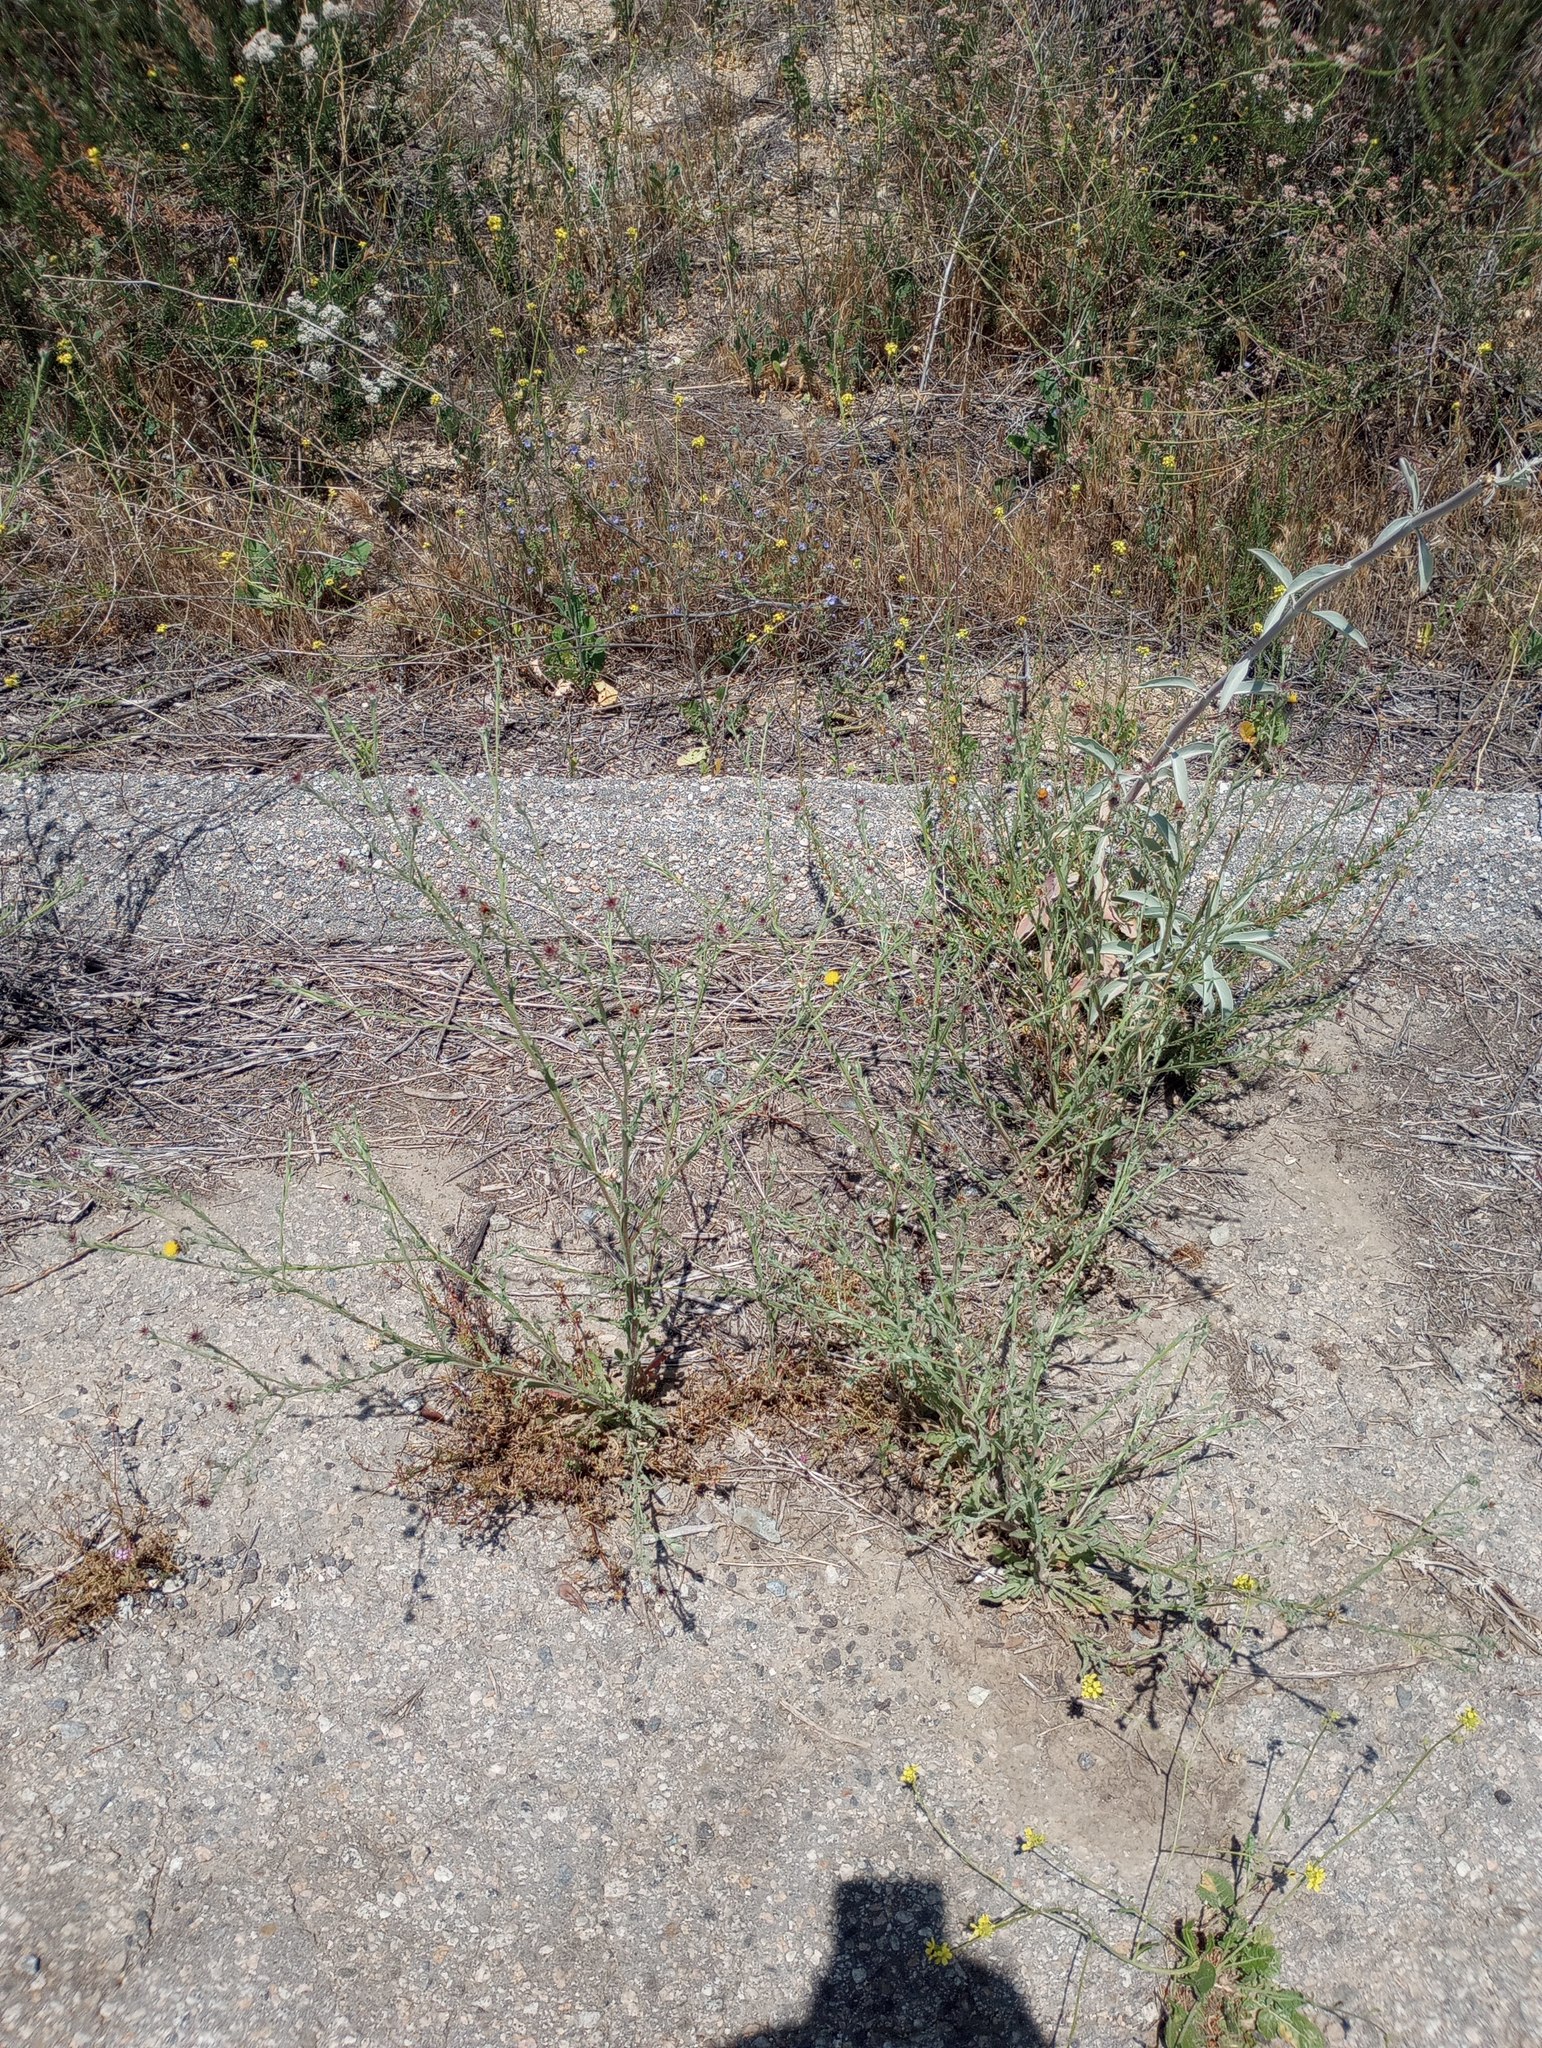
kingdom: Plantae
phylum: Tracheophyta
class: Magnoliopsida
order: Asterales
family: Asteraceae
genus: Centaurea
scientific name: Centaurea melitensis
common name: Maltese star-thistle
